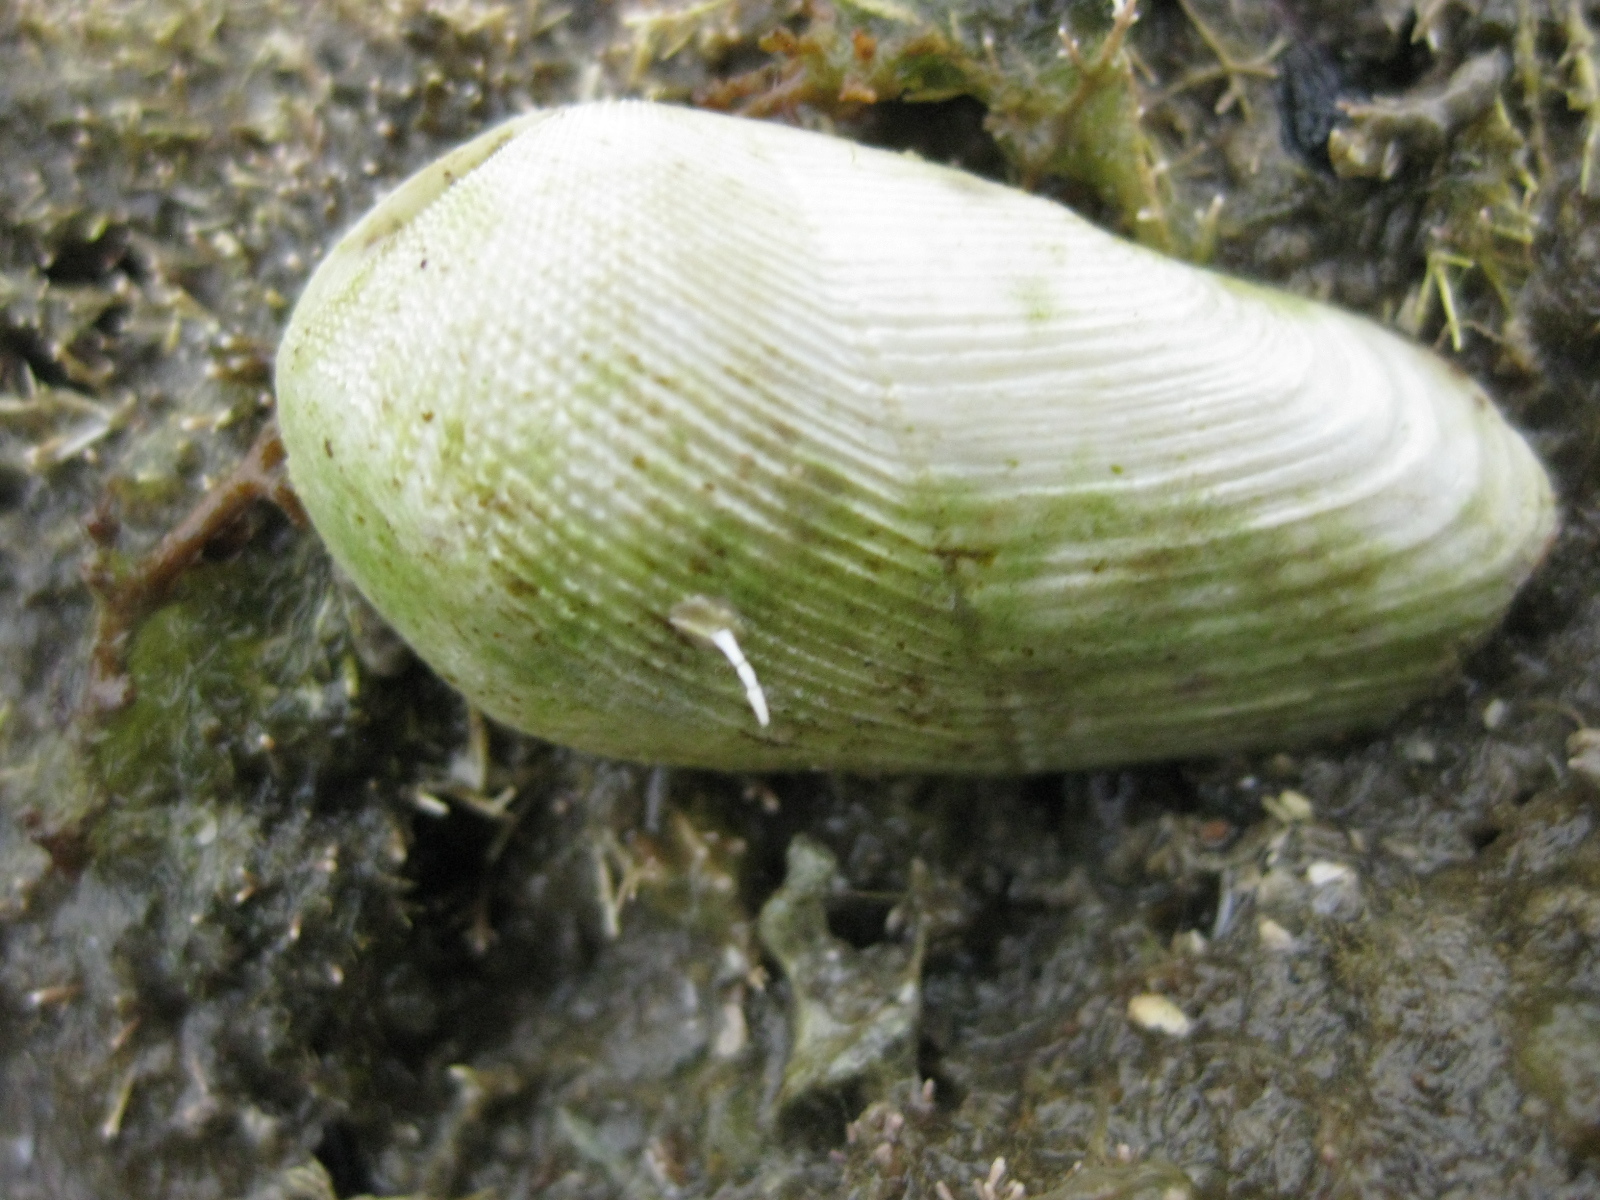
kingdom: Animalia
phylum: Mollusca
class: Bivalvia
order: Myida
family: Pholadidae
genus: Pholadidea
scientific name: Pholadidea suteri
